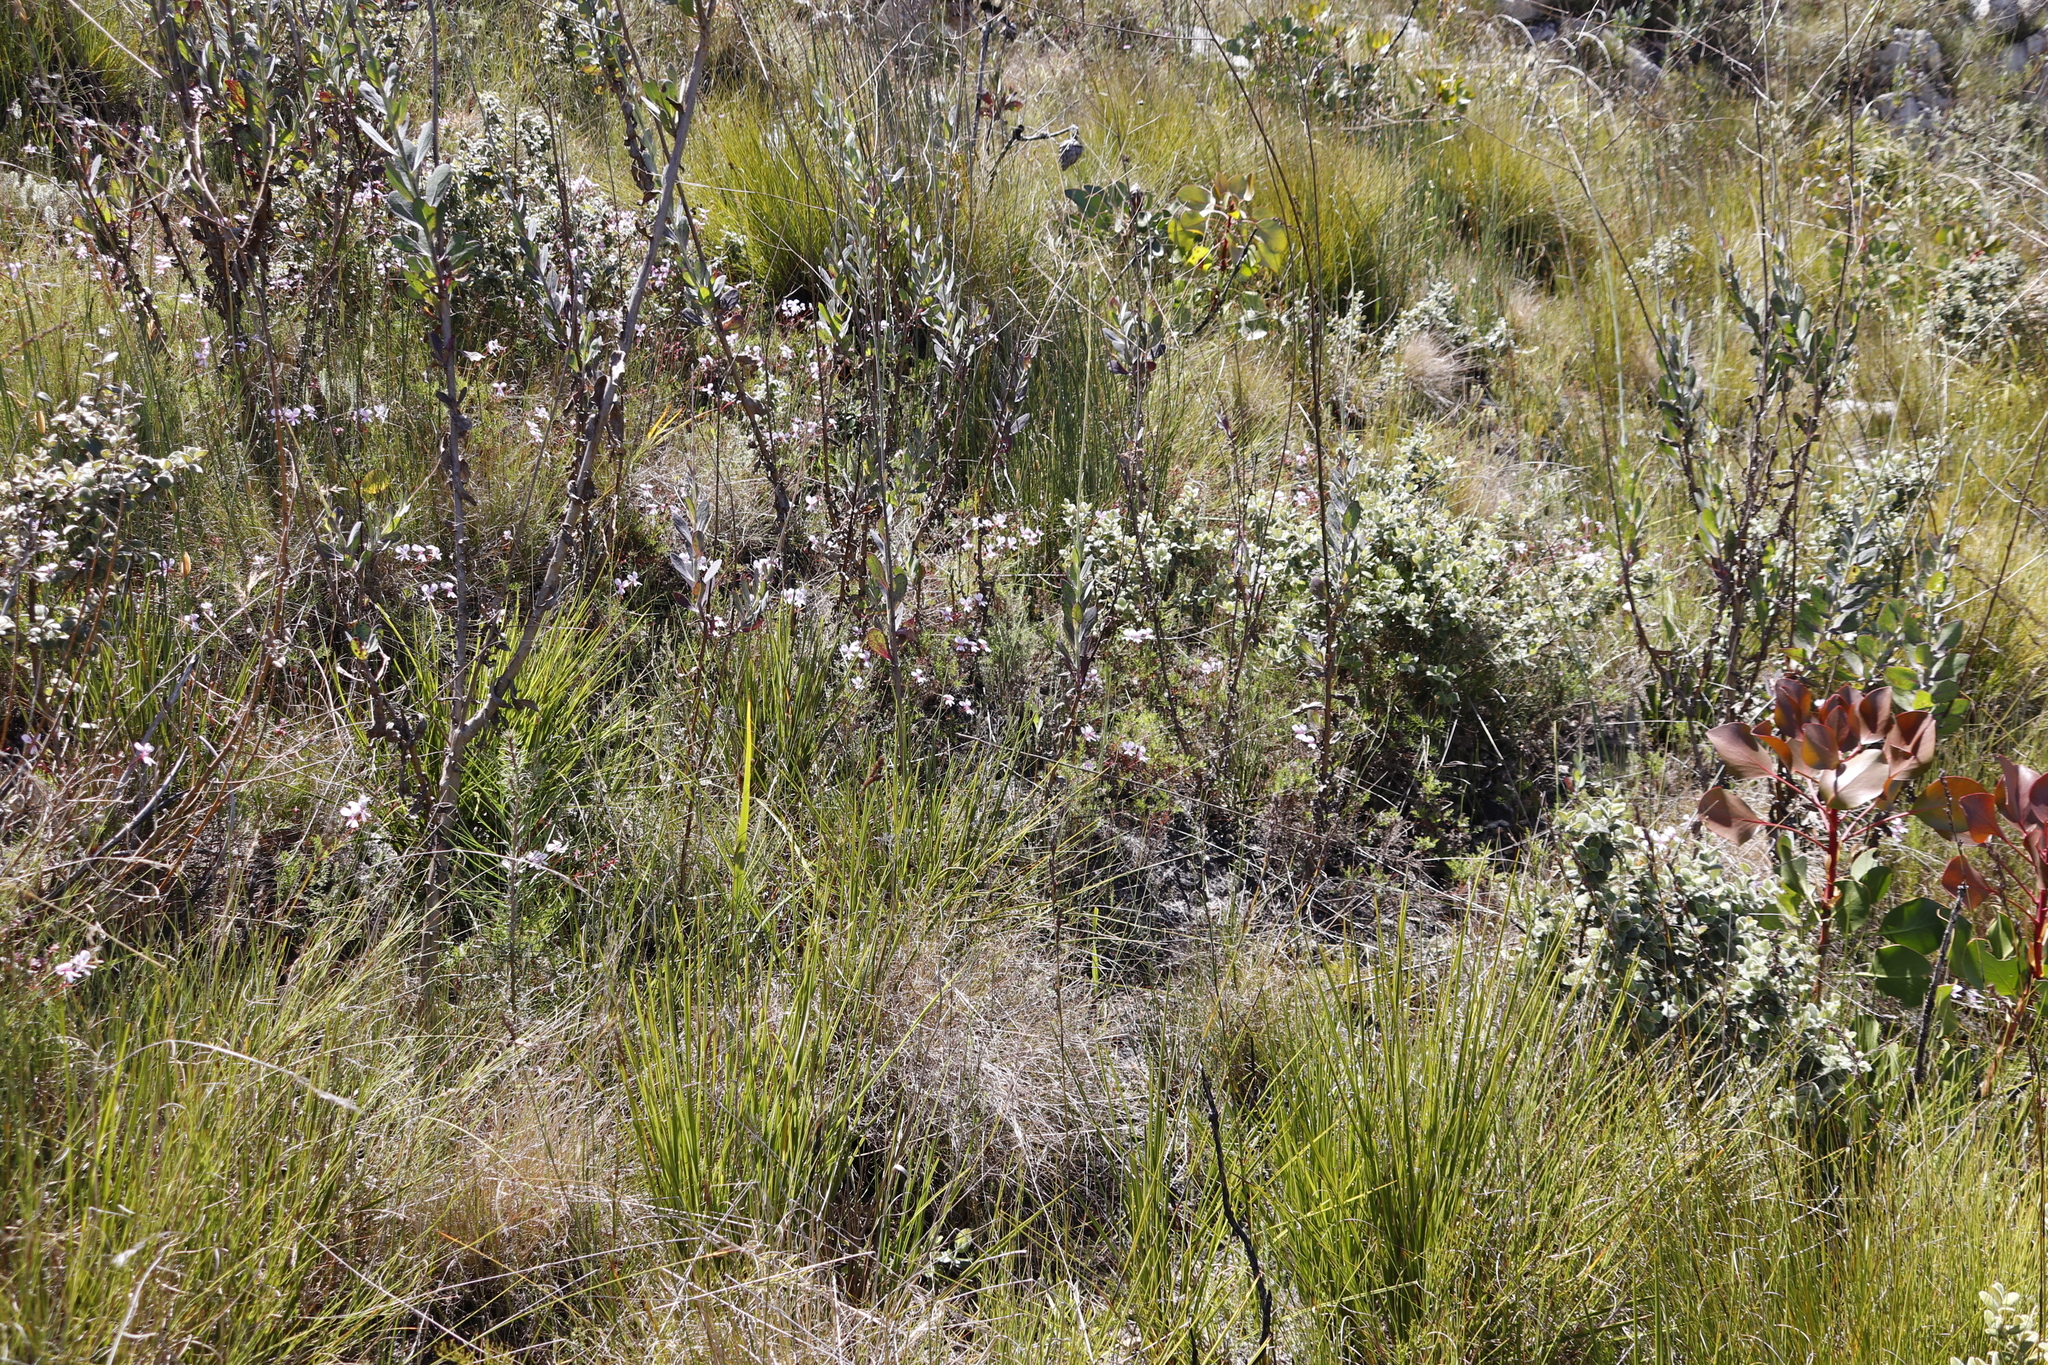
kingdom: Plantae
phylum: Tracheophyta
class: Magnoliopsida
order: Geraniales
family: Geraniaceae
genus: Pelargonium
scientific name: Pelargonium artemisiifolium
